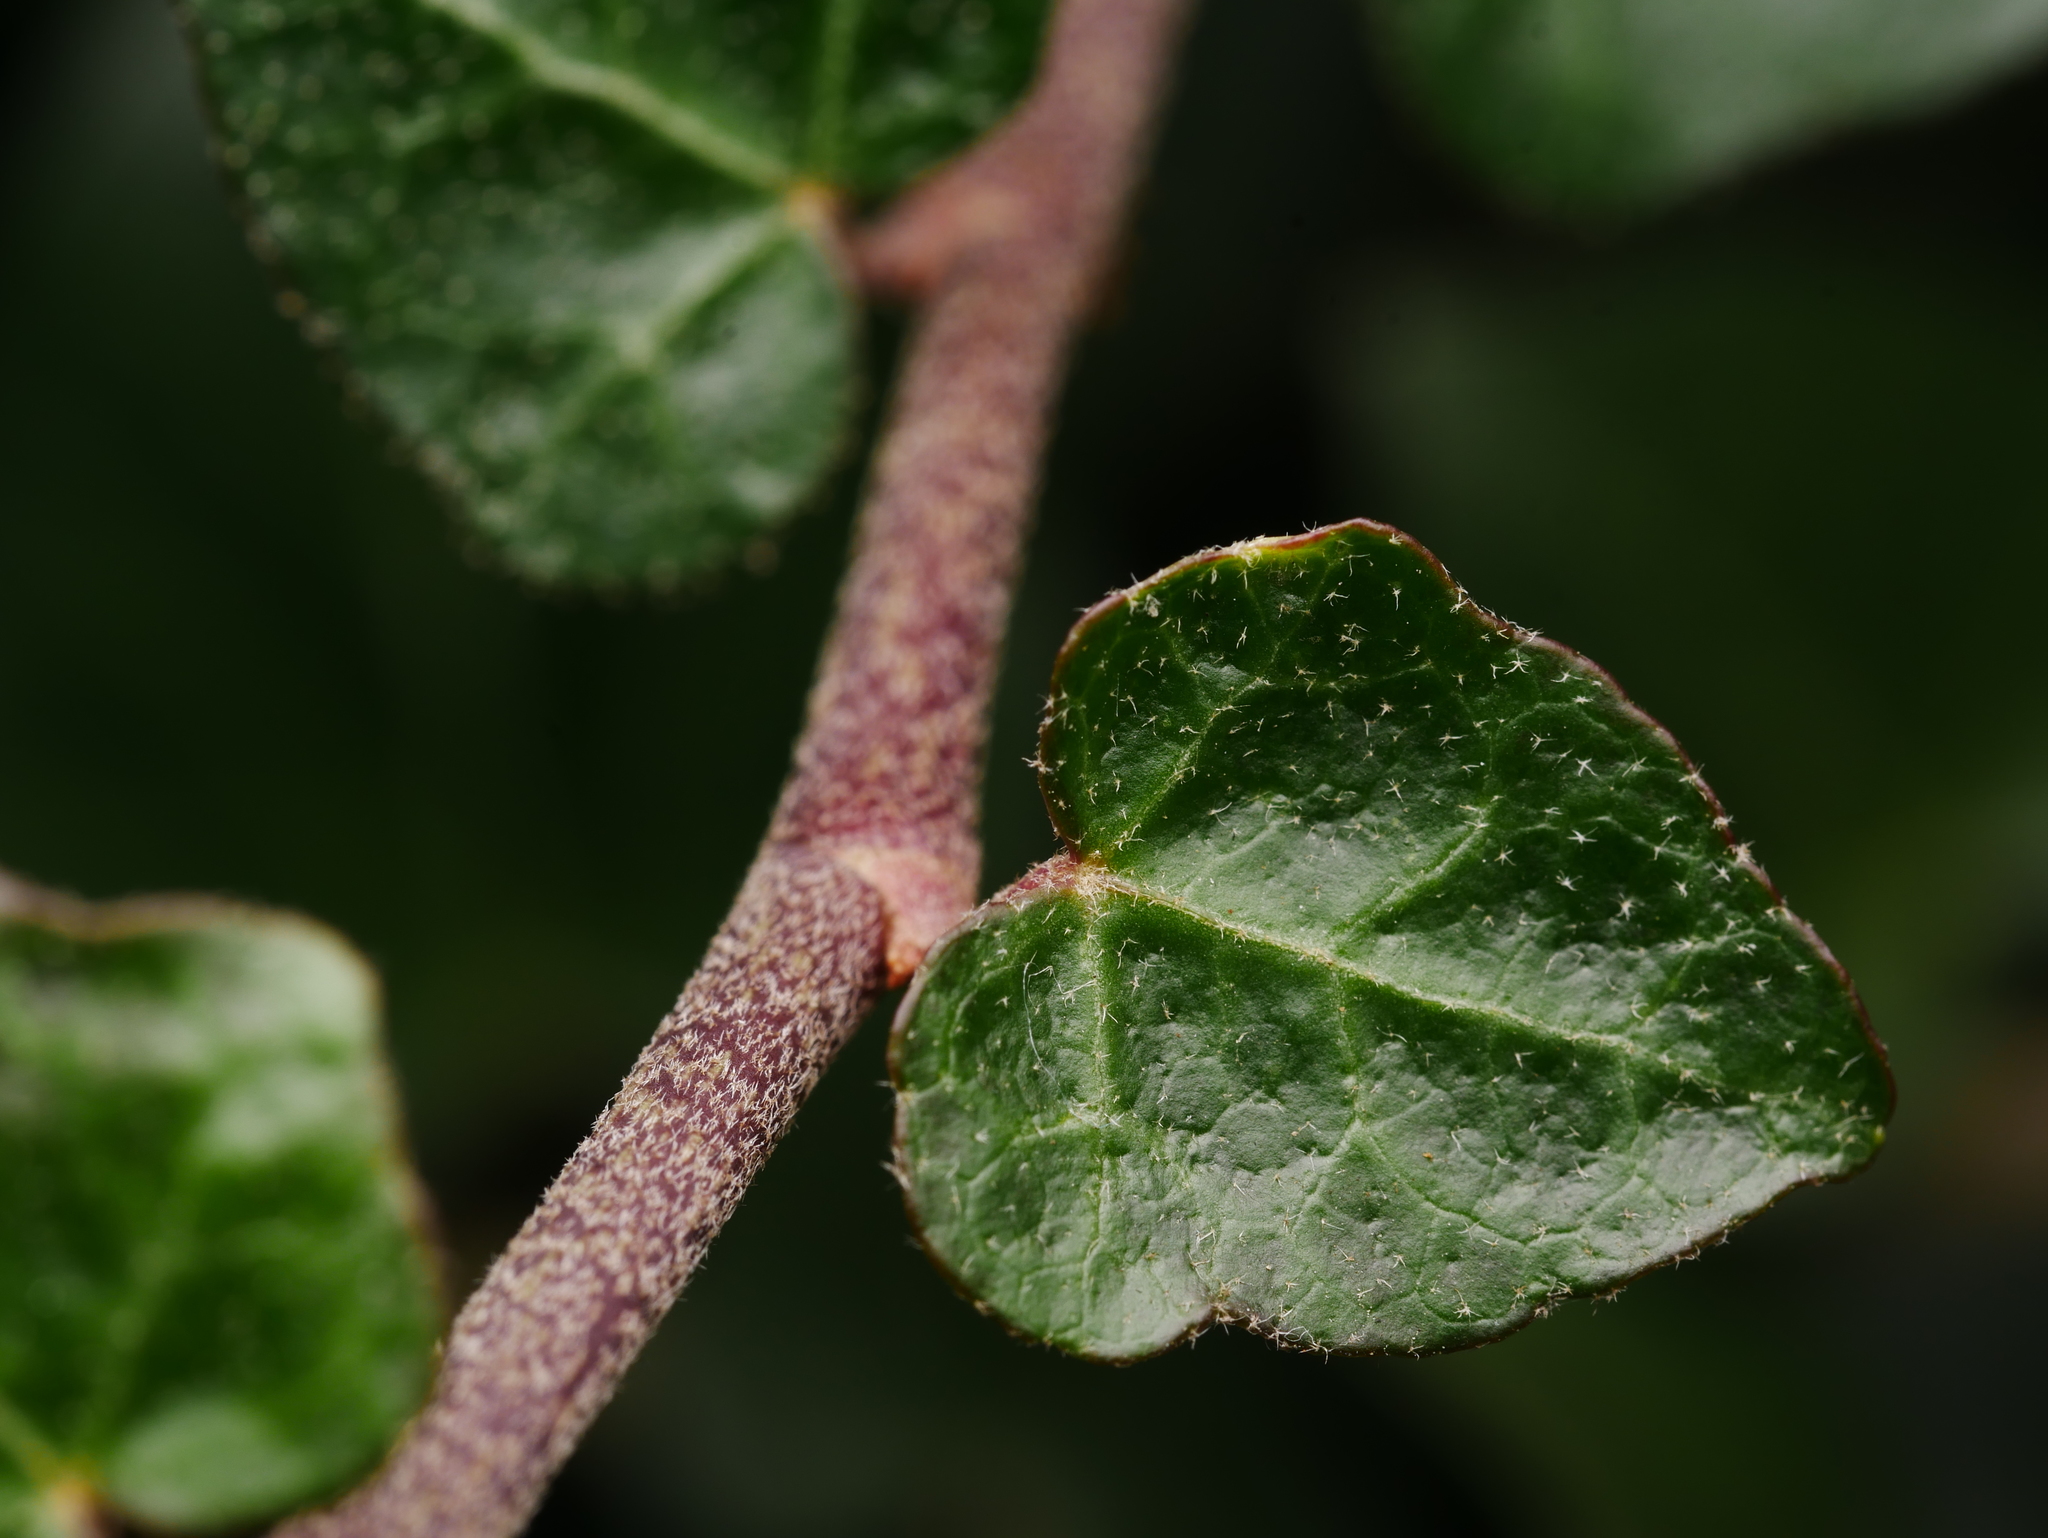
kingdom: Plantae
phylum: Tracheophyta
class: Magnoliopsida
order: Apiales
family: Araliaceae
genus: Hedera
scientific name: Hedera helix
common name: Ivy
